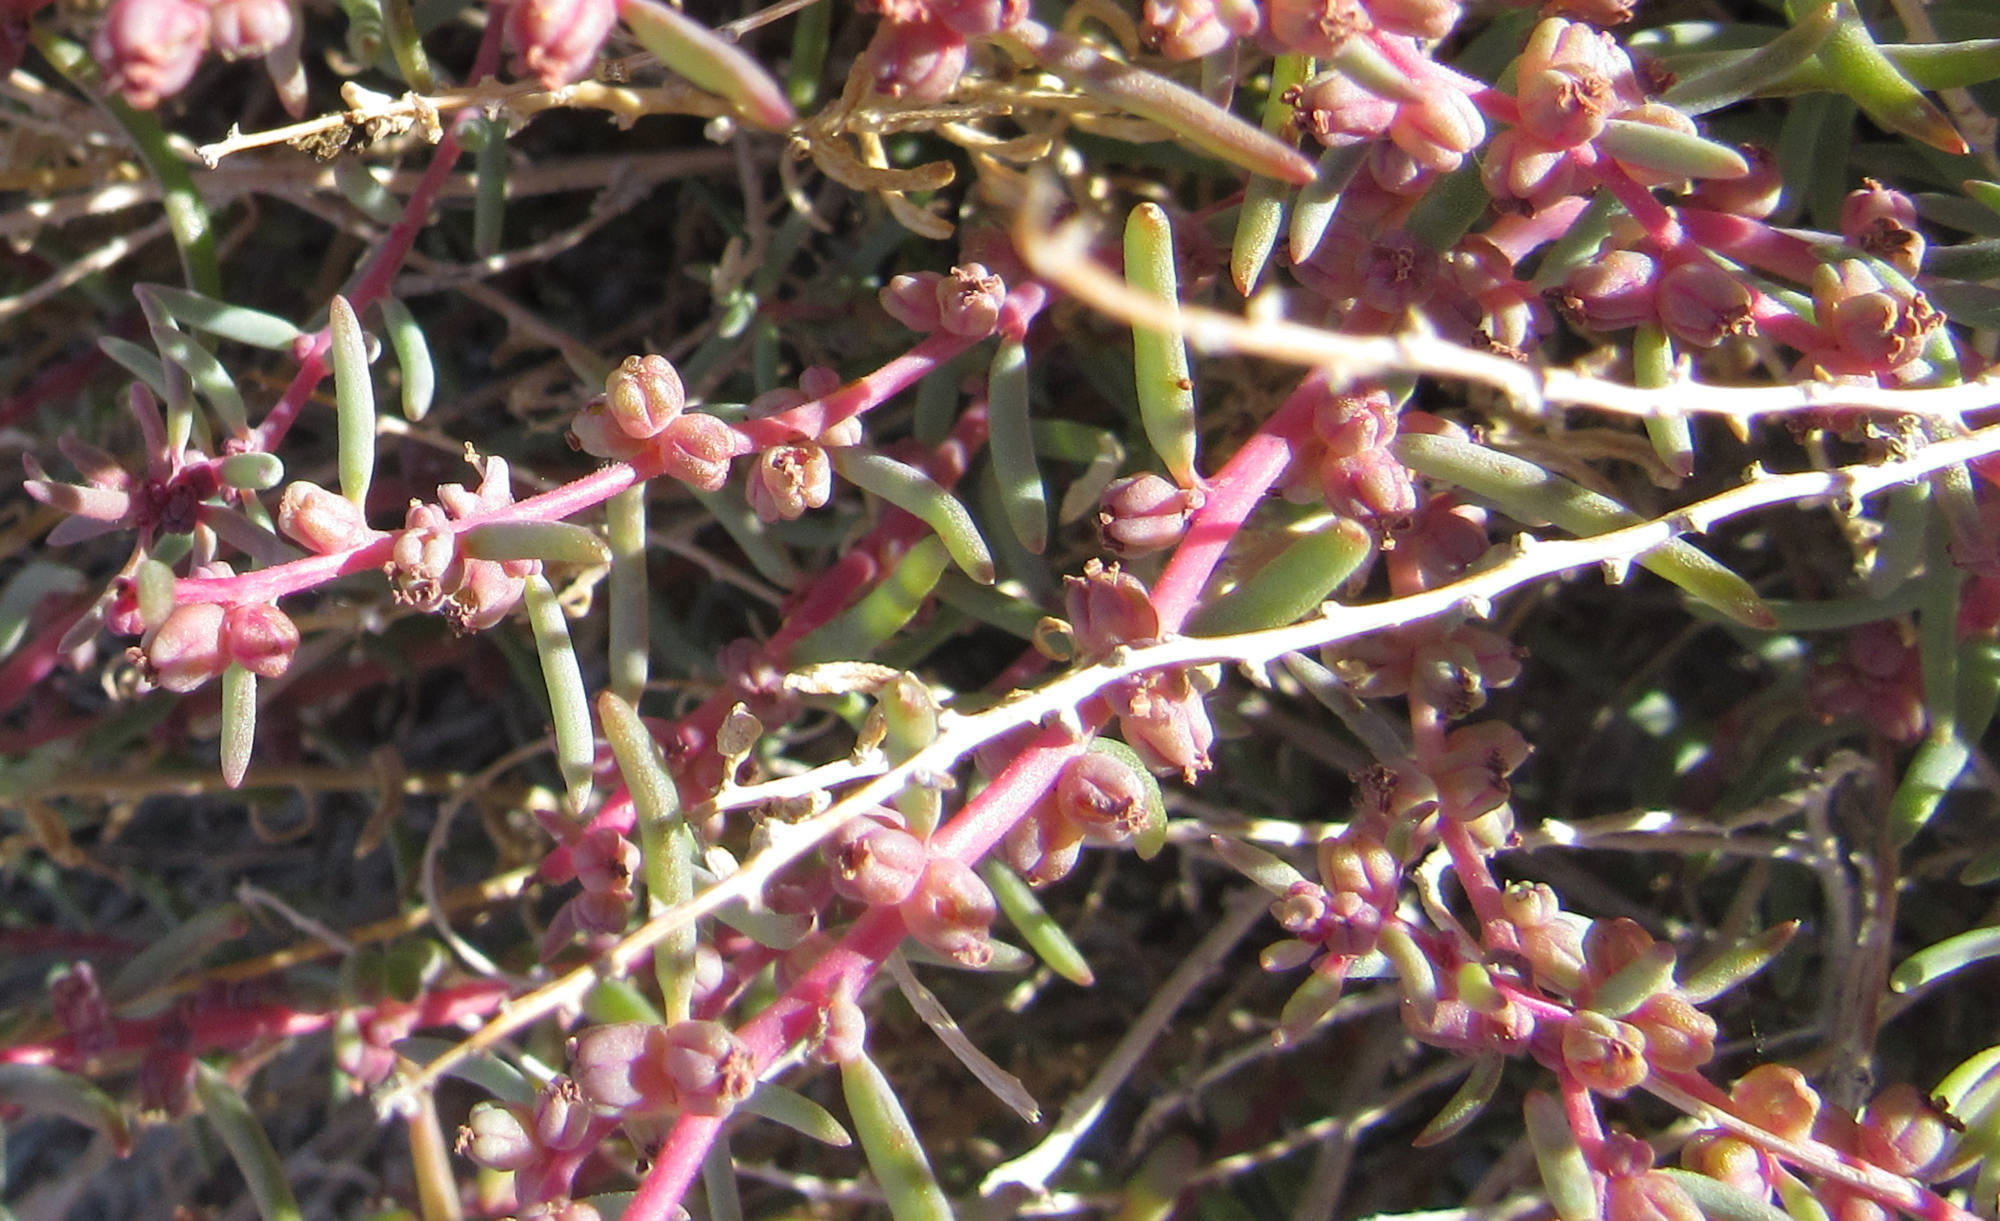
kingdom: Plantae
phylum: Tracheophyta
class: Magnoliopsida
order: Caryophyllales
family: Amaranthaceae
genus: Suaeda
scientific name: Suaeda nigra
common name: Bush seepweed
